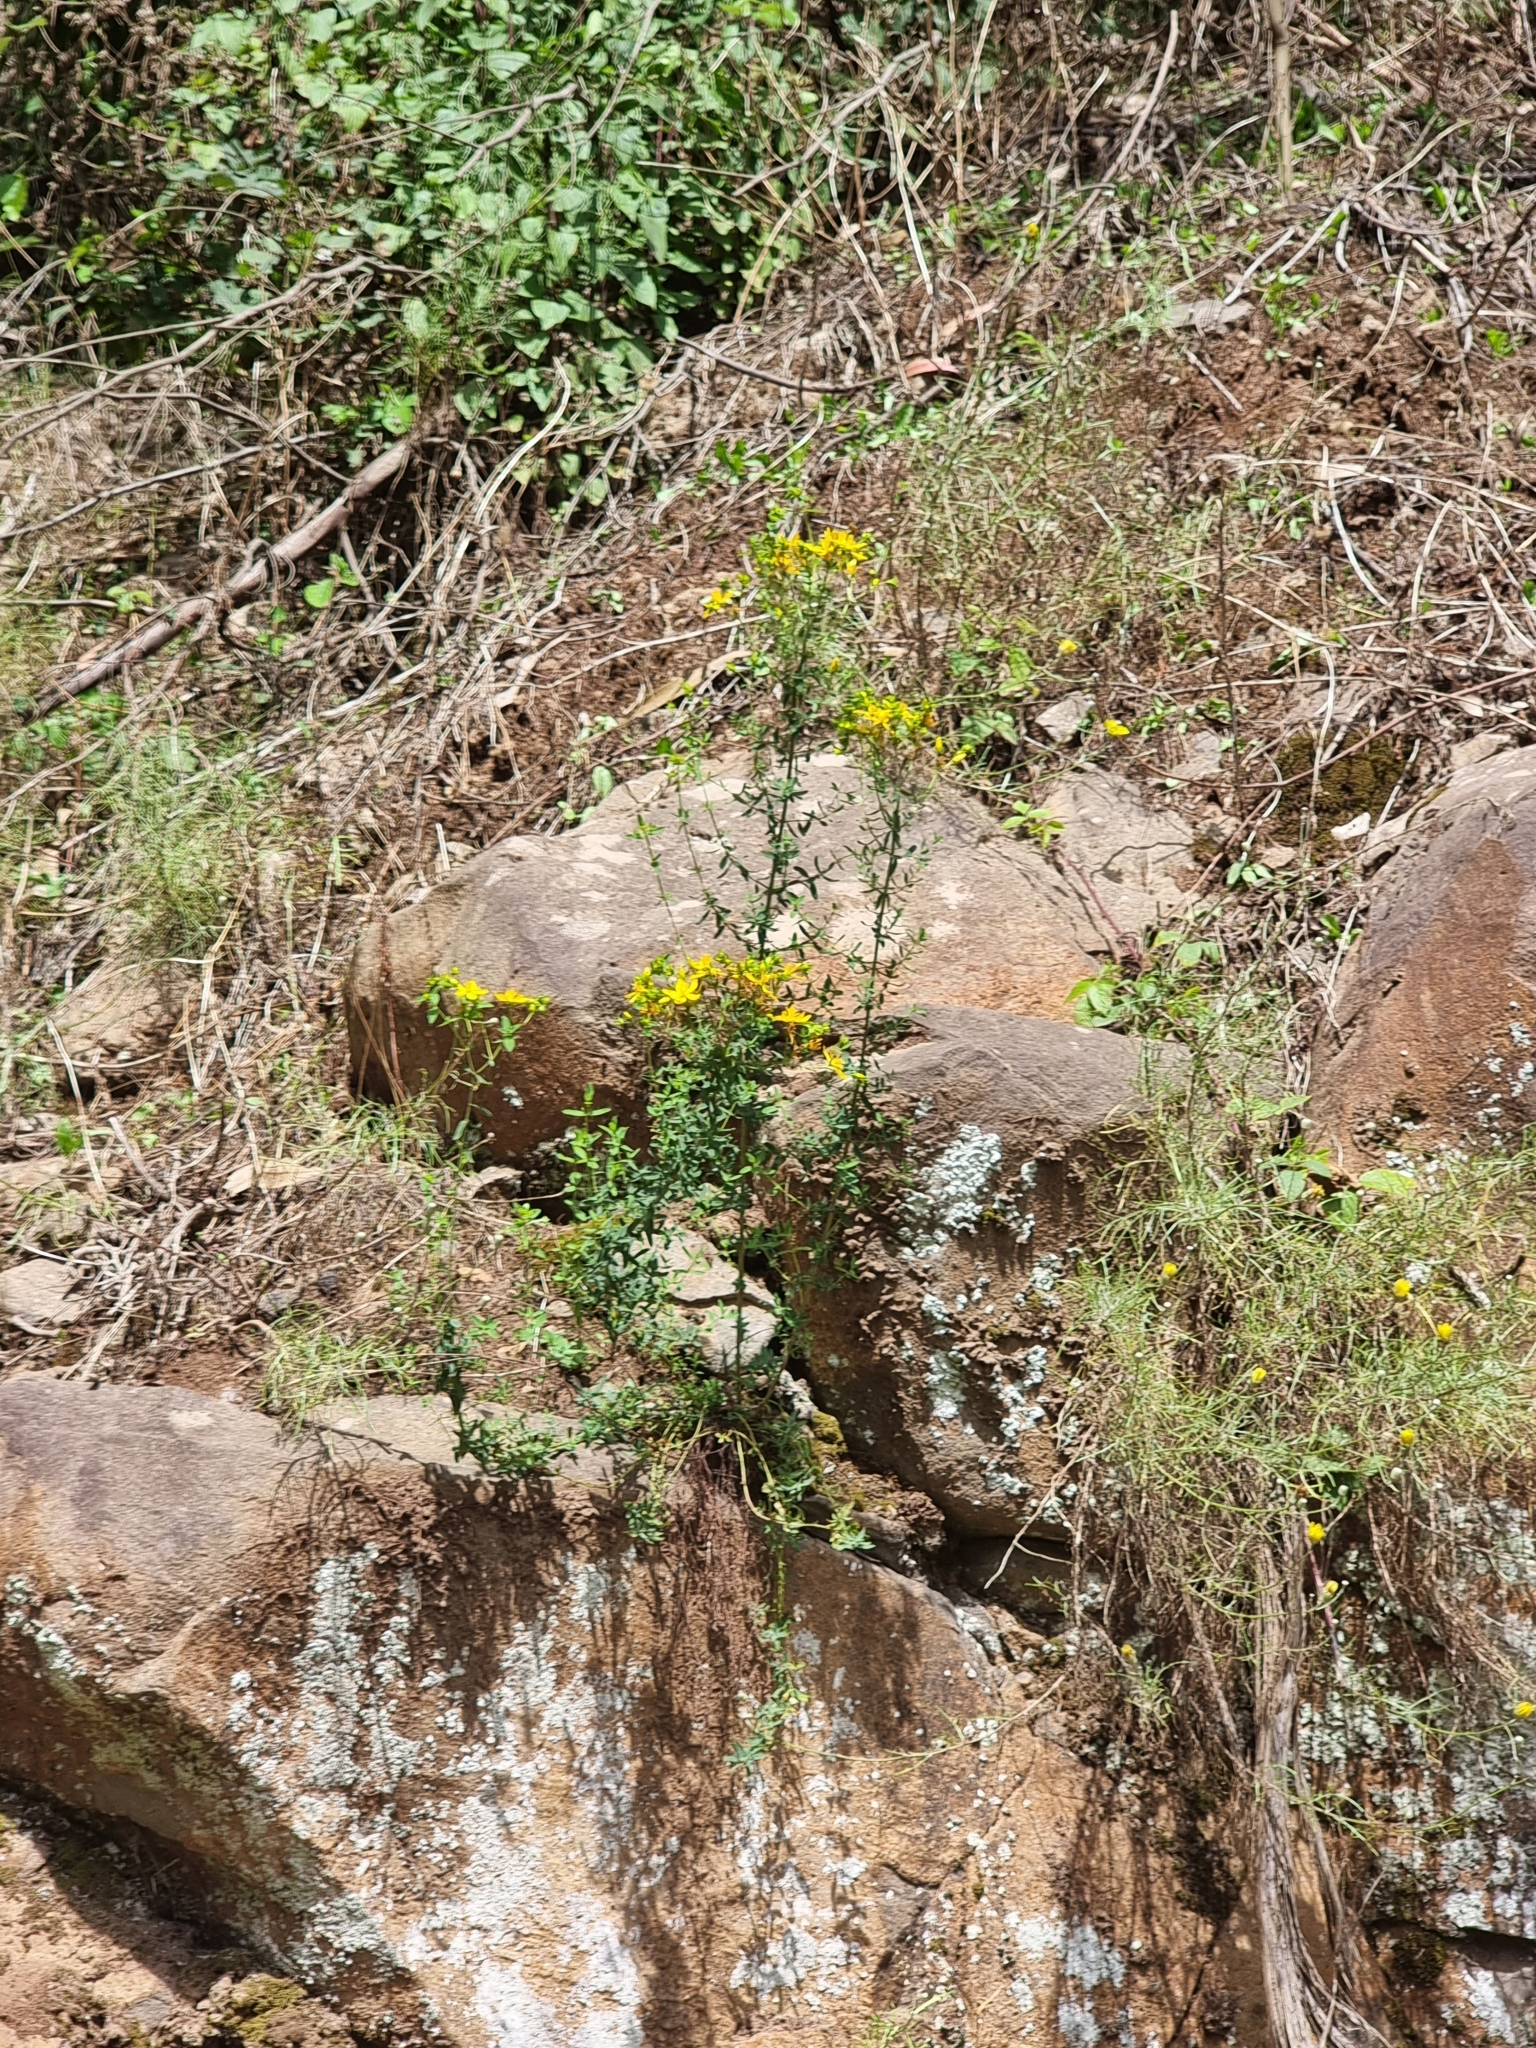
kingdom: Plantae
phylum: Tracheophyta
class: Magnoliopsida
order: Malpighiales
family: Hypericaceae
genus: Hypericum
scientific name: Hypericum perforatum
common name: Common st. johnswort
